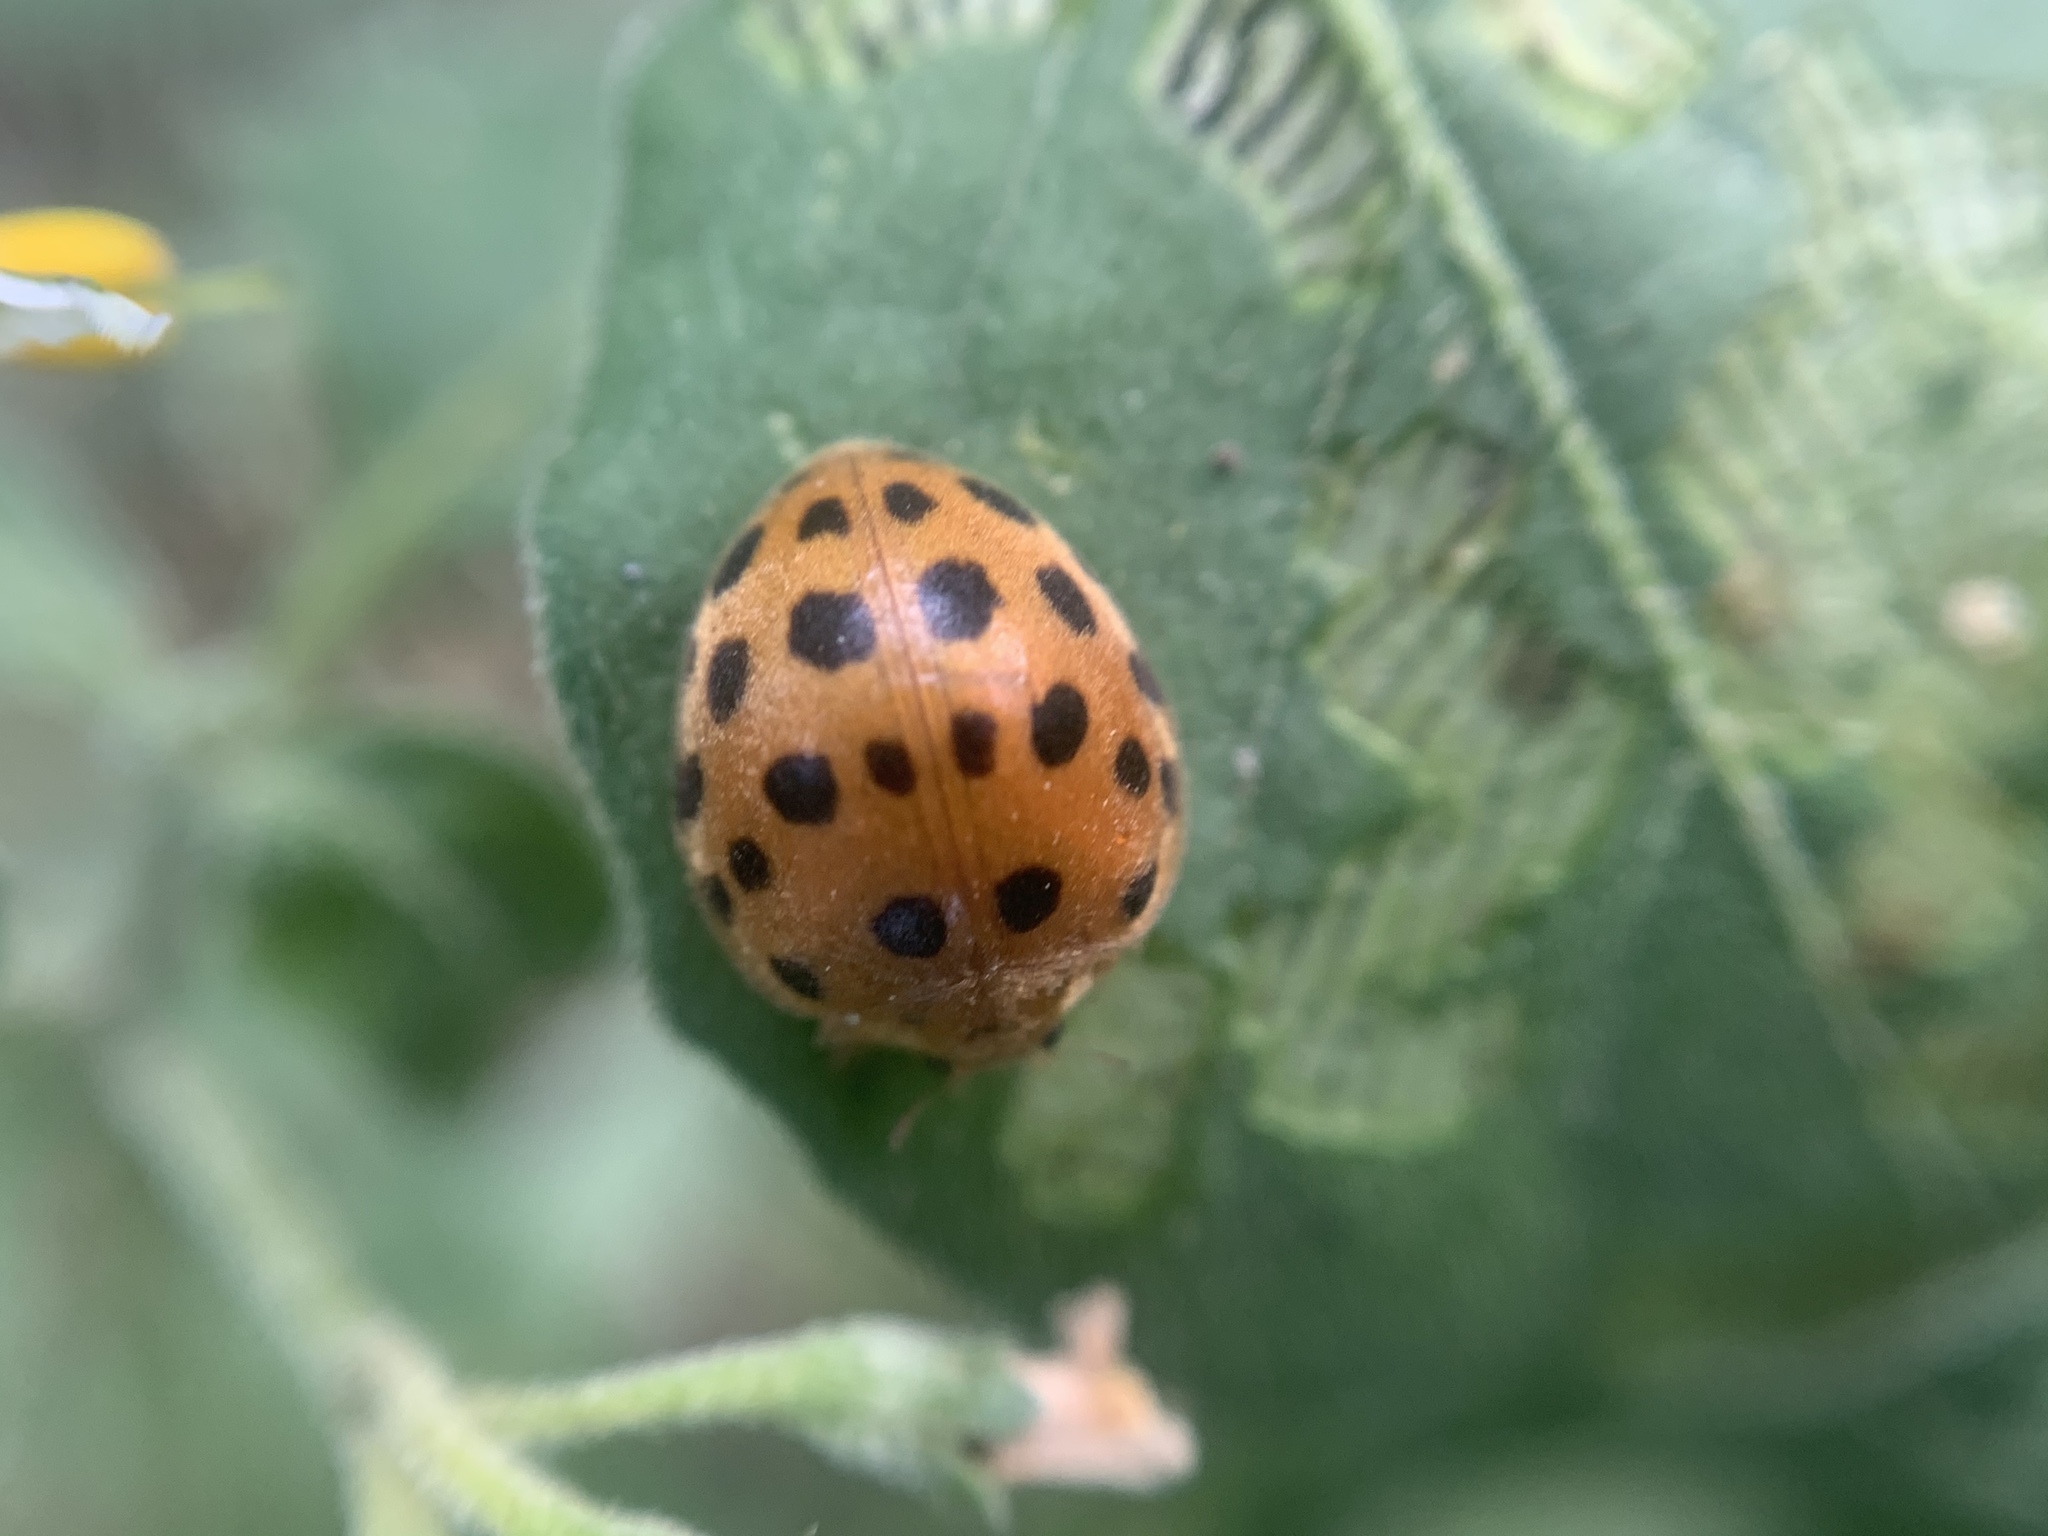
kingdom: Animalia
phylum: Arthropoda
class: Insecta
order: Coleoptera
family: Coccinellidae
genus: Henosepilachna
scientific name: Henosepilachna vigintioctopunctata
